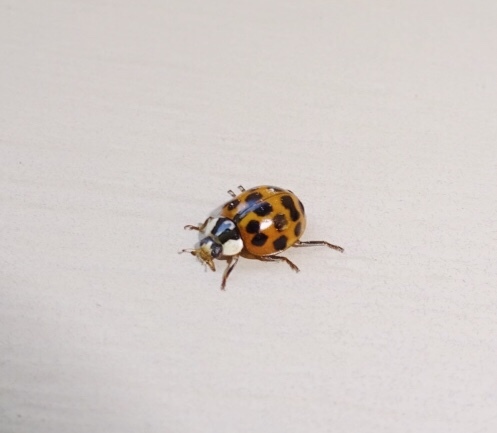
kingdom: Animalia
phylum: Arthropoda
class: Insecta
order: Coleoptera
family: Coccinellidae
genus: Harmonia
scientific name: Harmonia axyridis
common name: Harlequin ladybird
